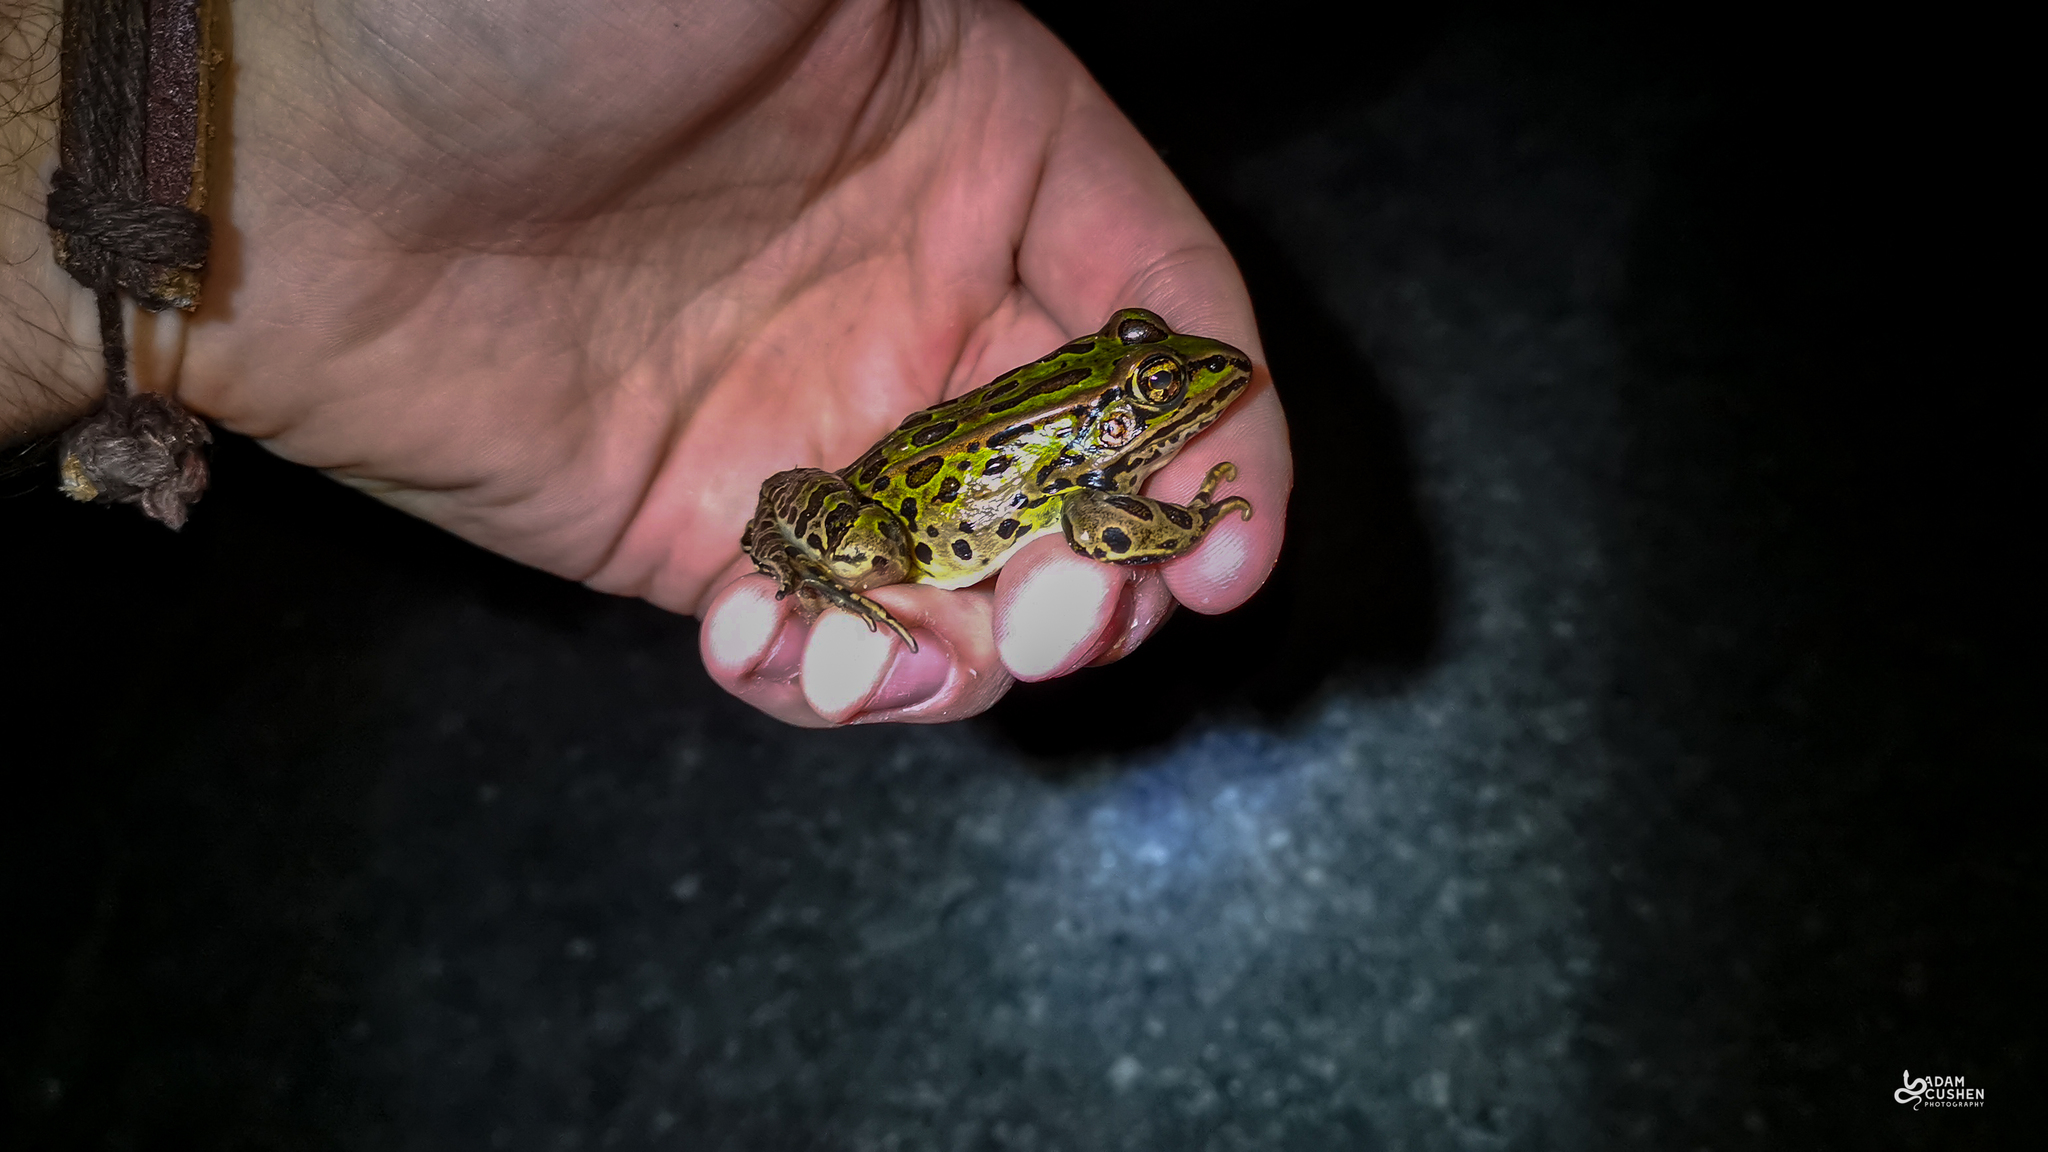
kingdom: Animalia
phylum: Chordata
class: Amphibia
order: Anura
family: Ranidae
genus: Lithobates
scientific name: Lithobates pipiens
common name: Northern leopard frog
